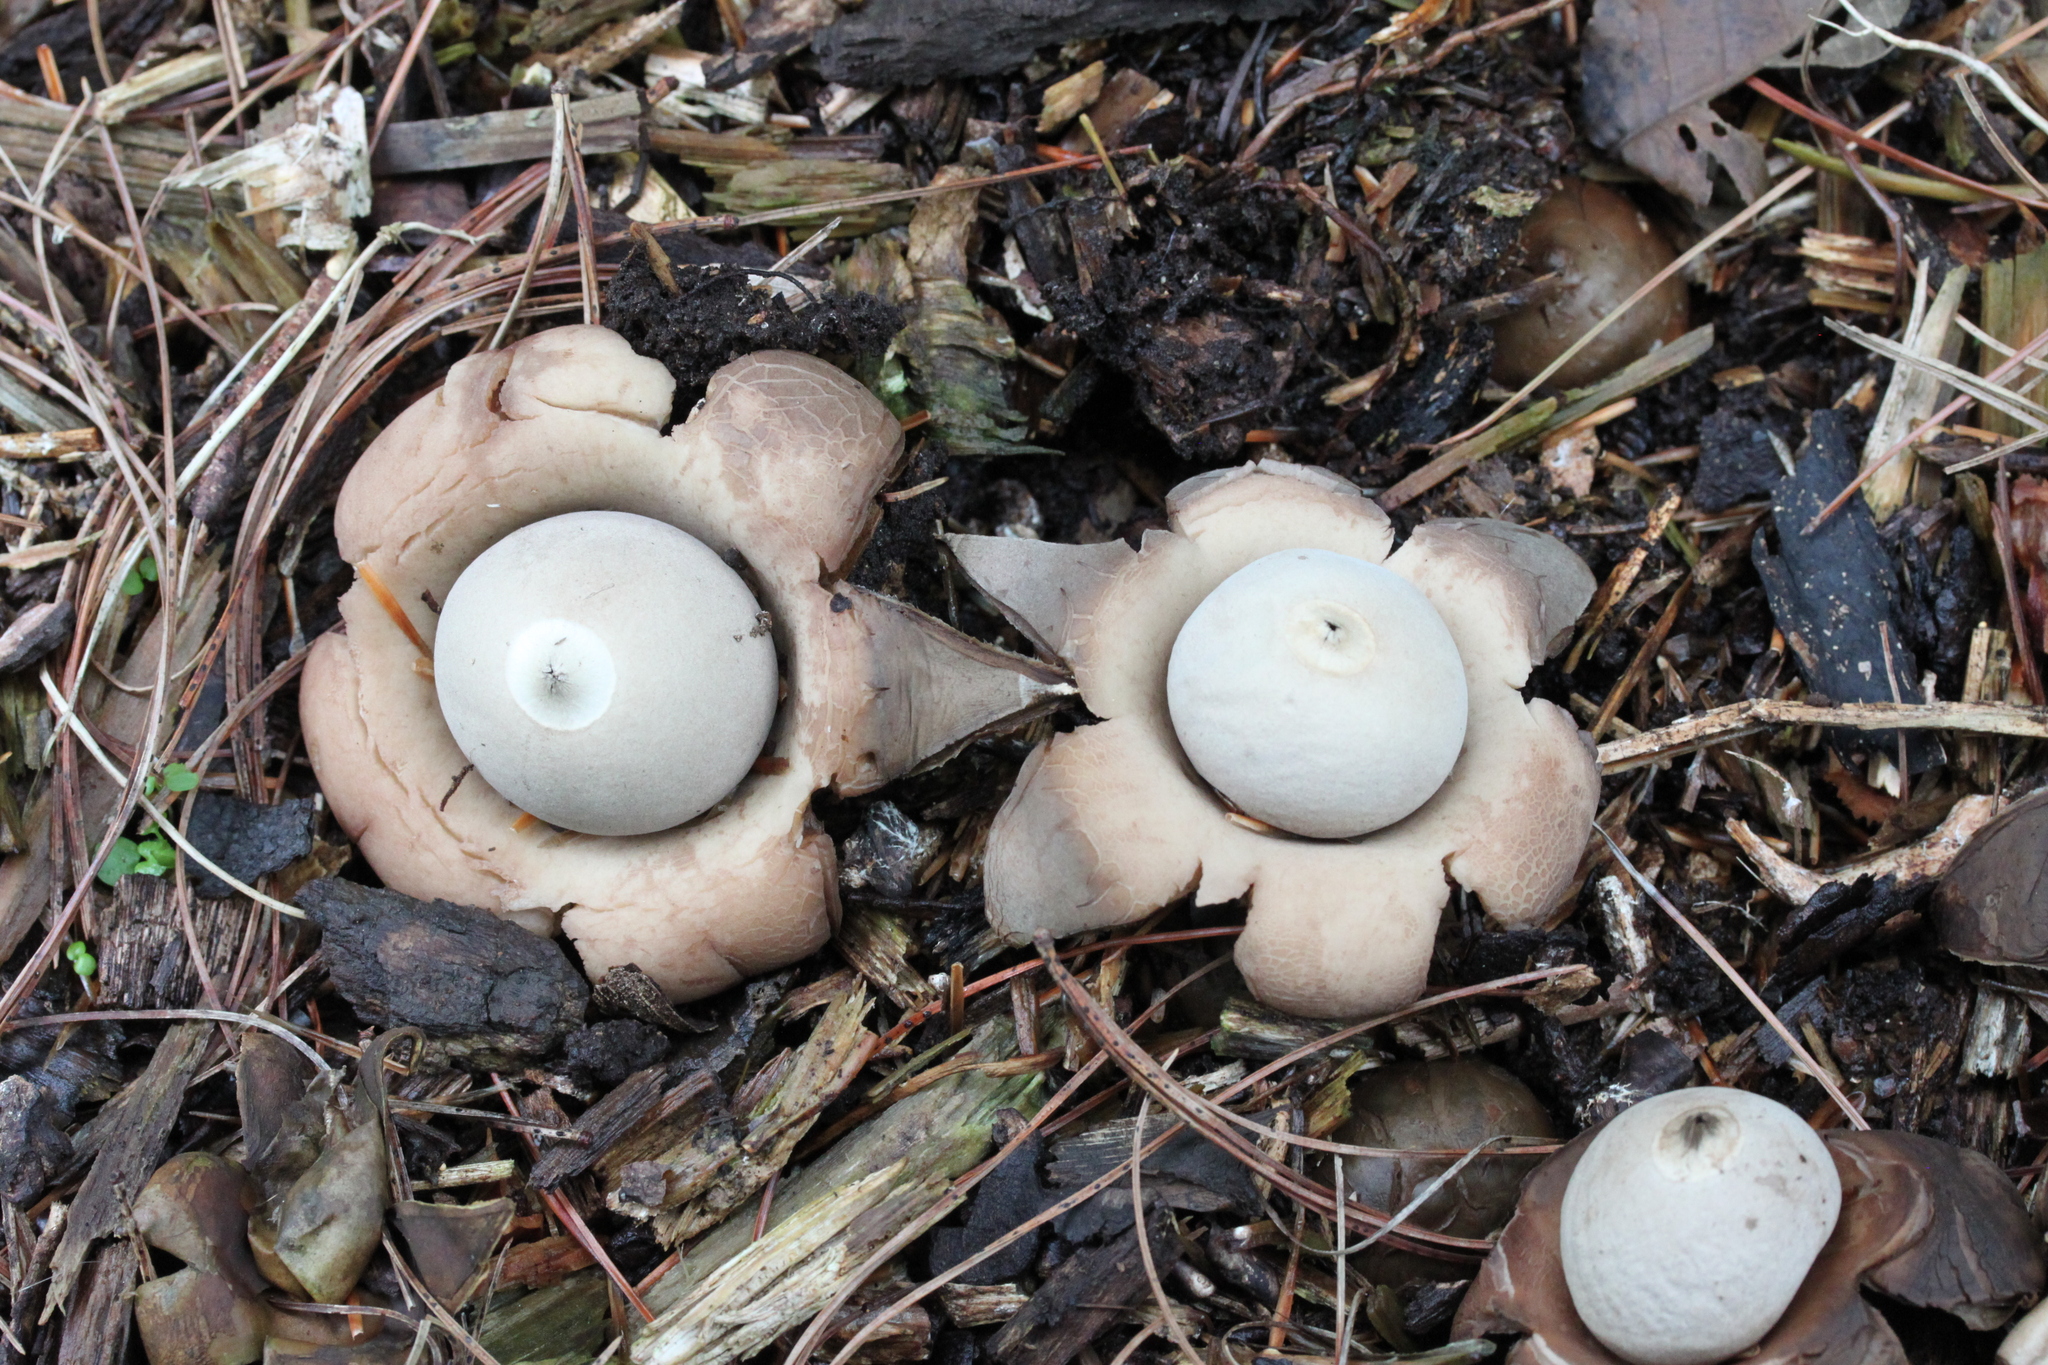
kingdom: Fungi
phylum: Basidiomycota
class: Agaricomycetes
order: Geastrales
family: Geastraceae
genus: Geastrum
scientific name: Geastrum saccatum
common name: Rounded earthstar
